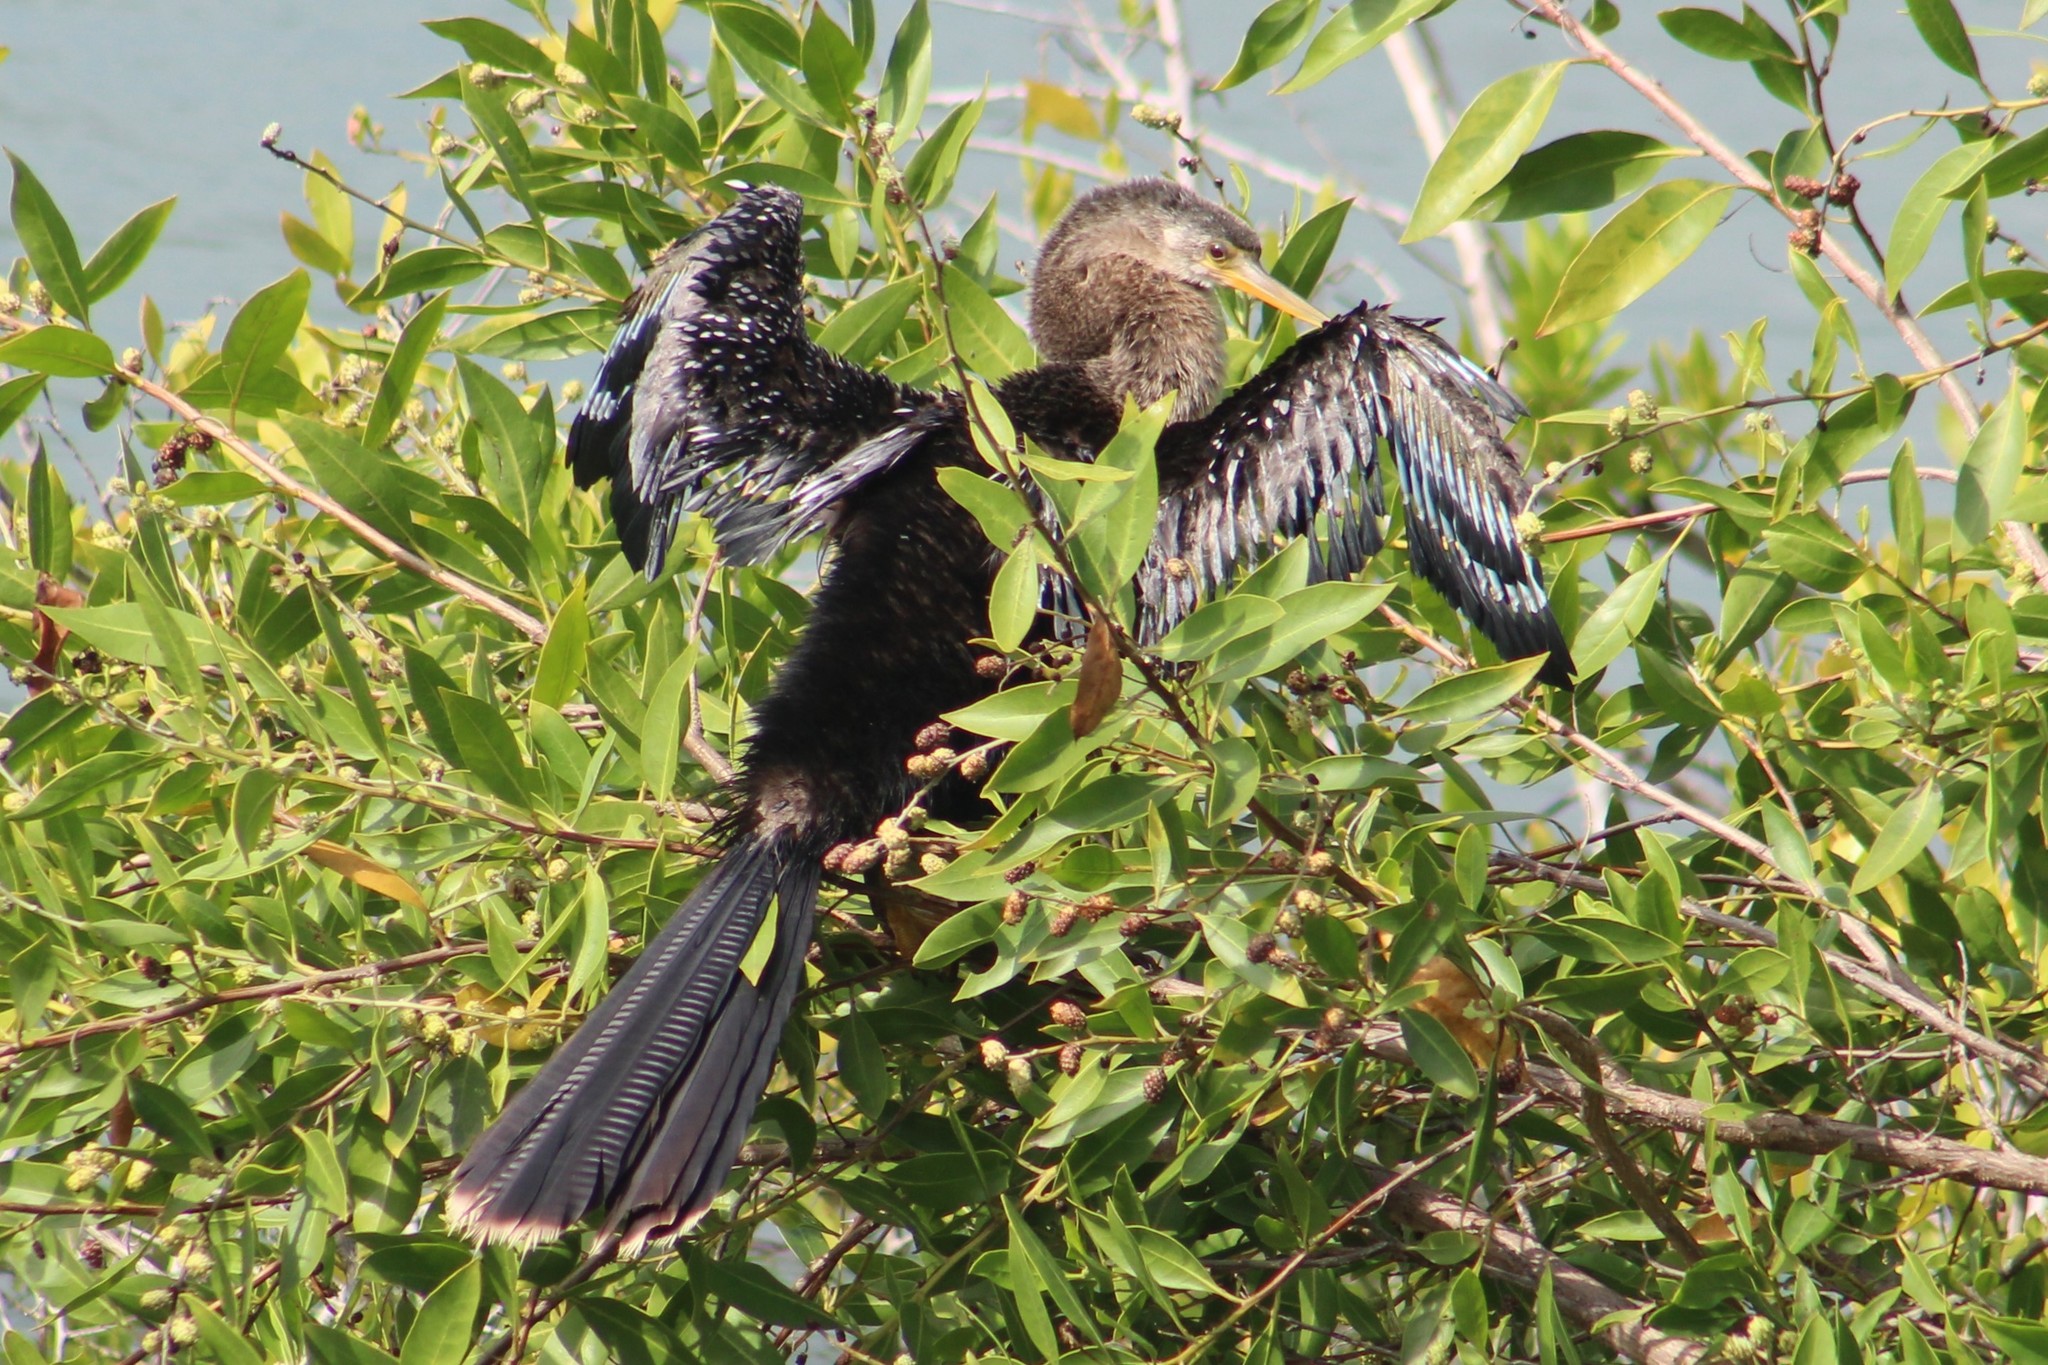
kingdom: Animalia
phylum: Chordata
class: Aves
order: Suliformes
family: Anhingidae
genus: Anhinga
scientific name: Anhinga anhinga
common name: Anhinga
